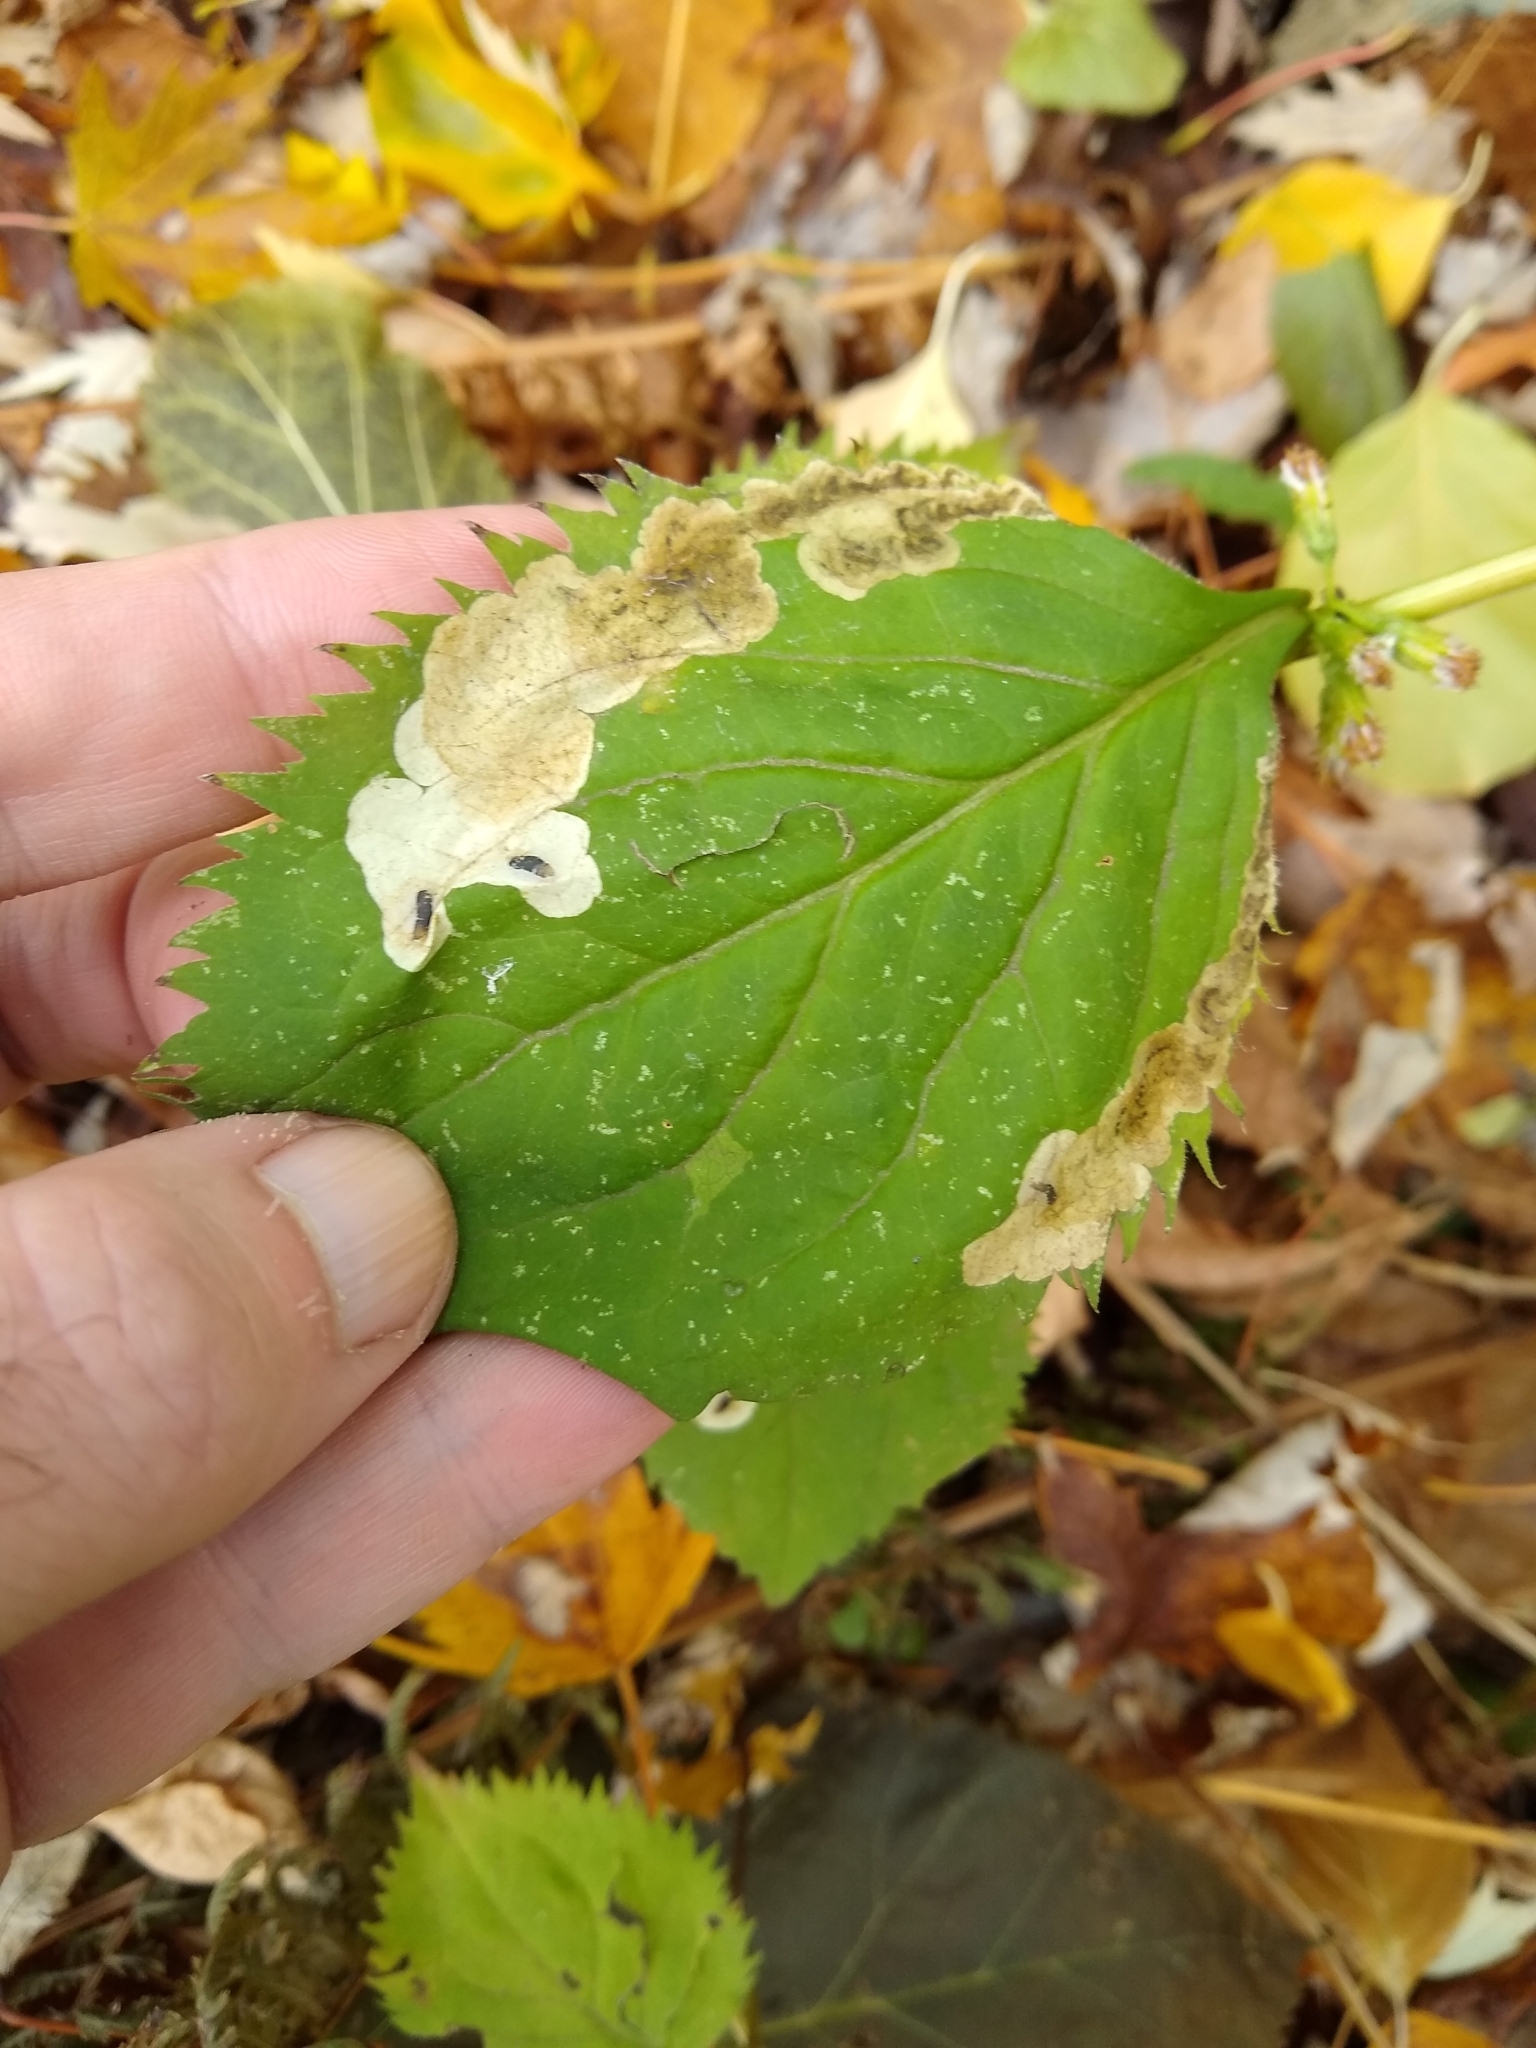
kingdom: Animalia
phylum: Arthropoda
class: Insecta
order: Diptera
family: Agromyzidae
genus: Nemorimyza
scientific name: Nemorimyza posticata
